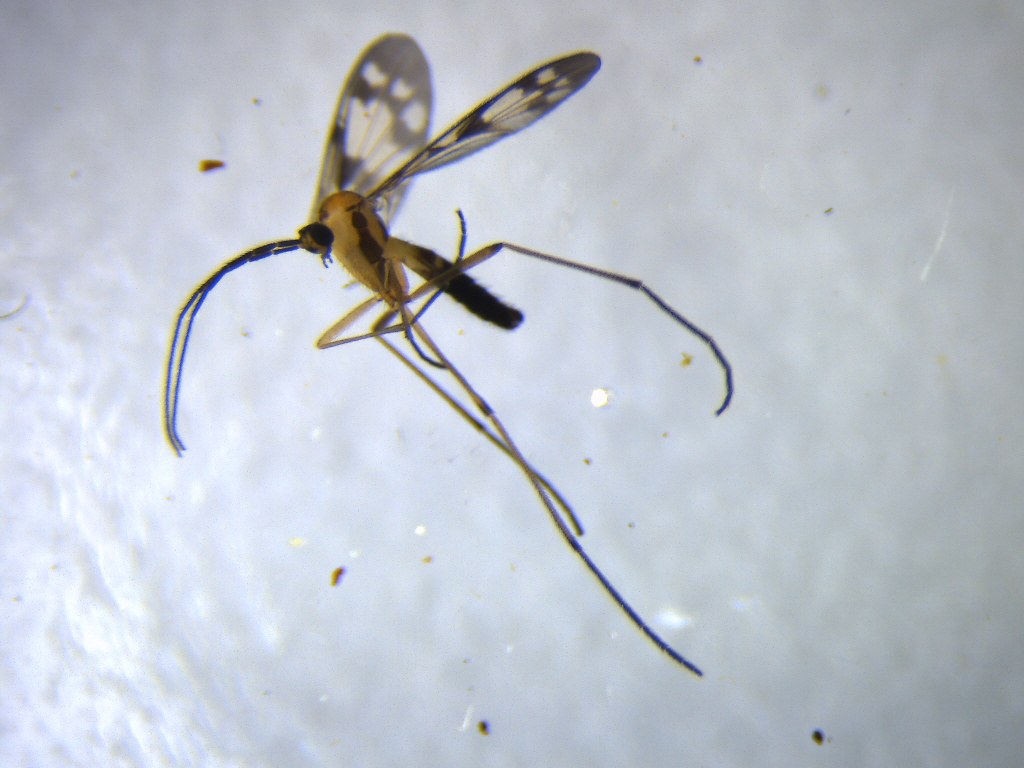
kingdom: Animalia
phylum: Arthropoda
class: Insecta
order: Diptera
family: Keroplatidae
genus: Chiasmoneura
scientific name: Chiasmoneura fenestrata
